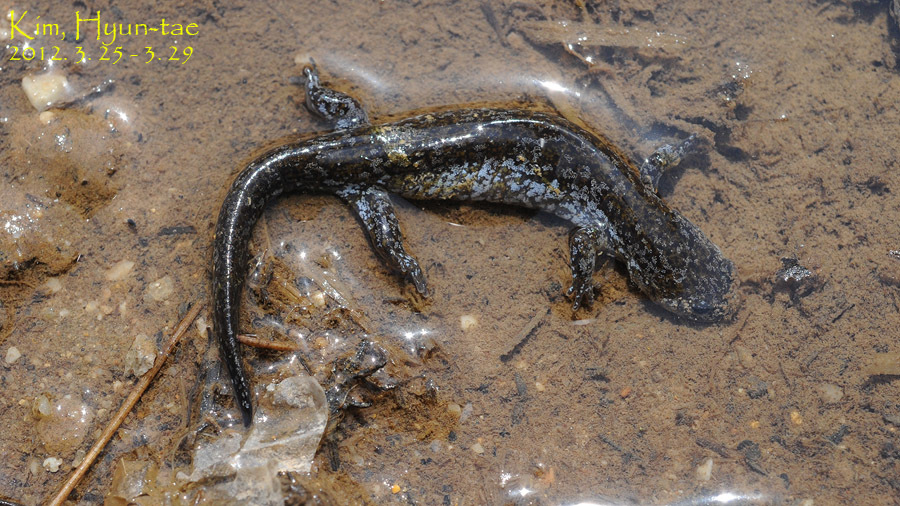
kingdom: Animalia
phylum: Chordata
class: Amphibia
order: Caudata
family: Hynobiidae
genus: Hynobius
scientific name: Hynobius quelpaertensis
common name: Cheju salamander
